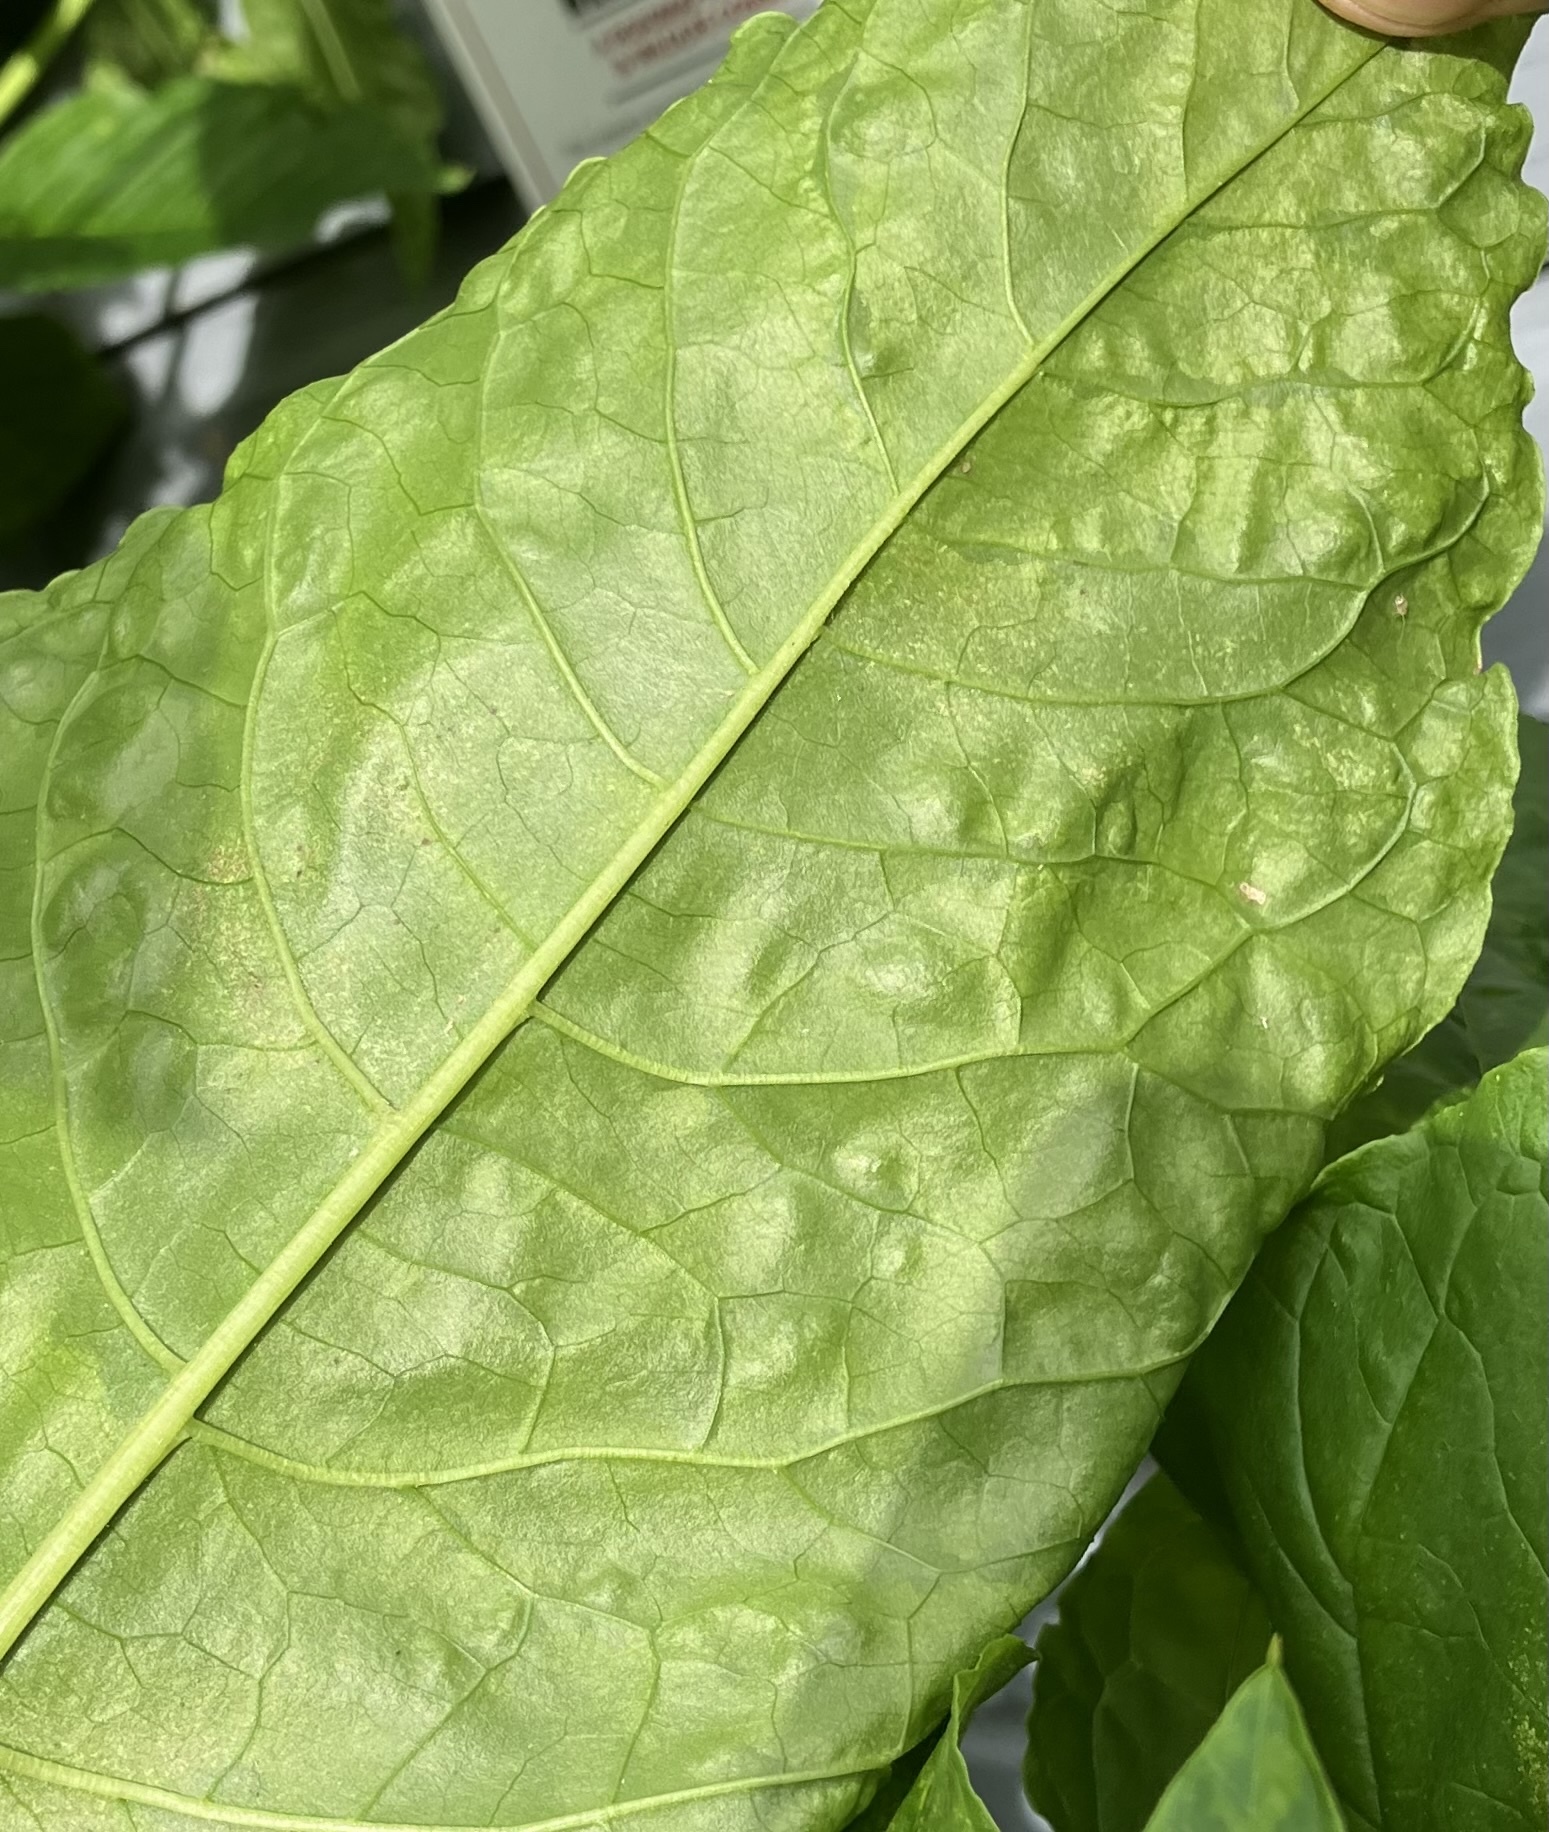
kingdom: Viruses
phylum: Pisuviricota
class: Stelpaviricetes
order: Patatavirales
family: Potyviridae
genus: Potyvirus
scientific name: Potyvirus Pokeweed mosaic virus
